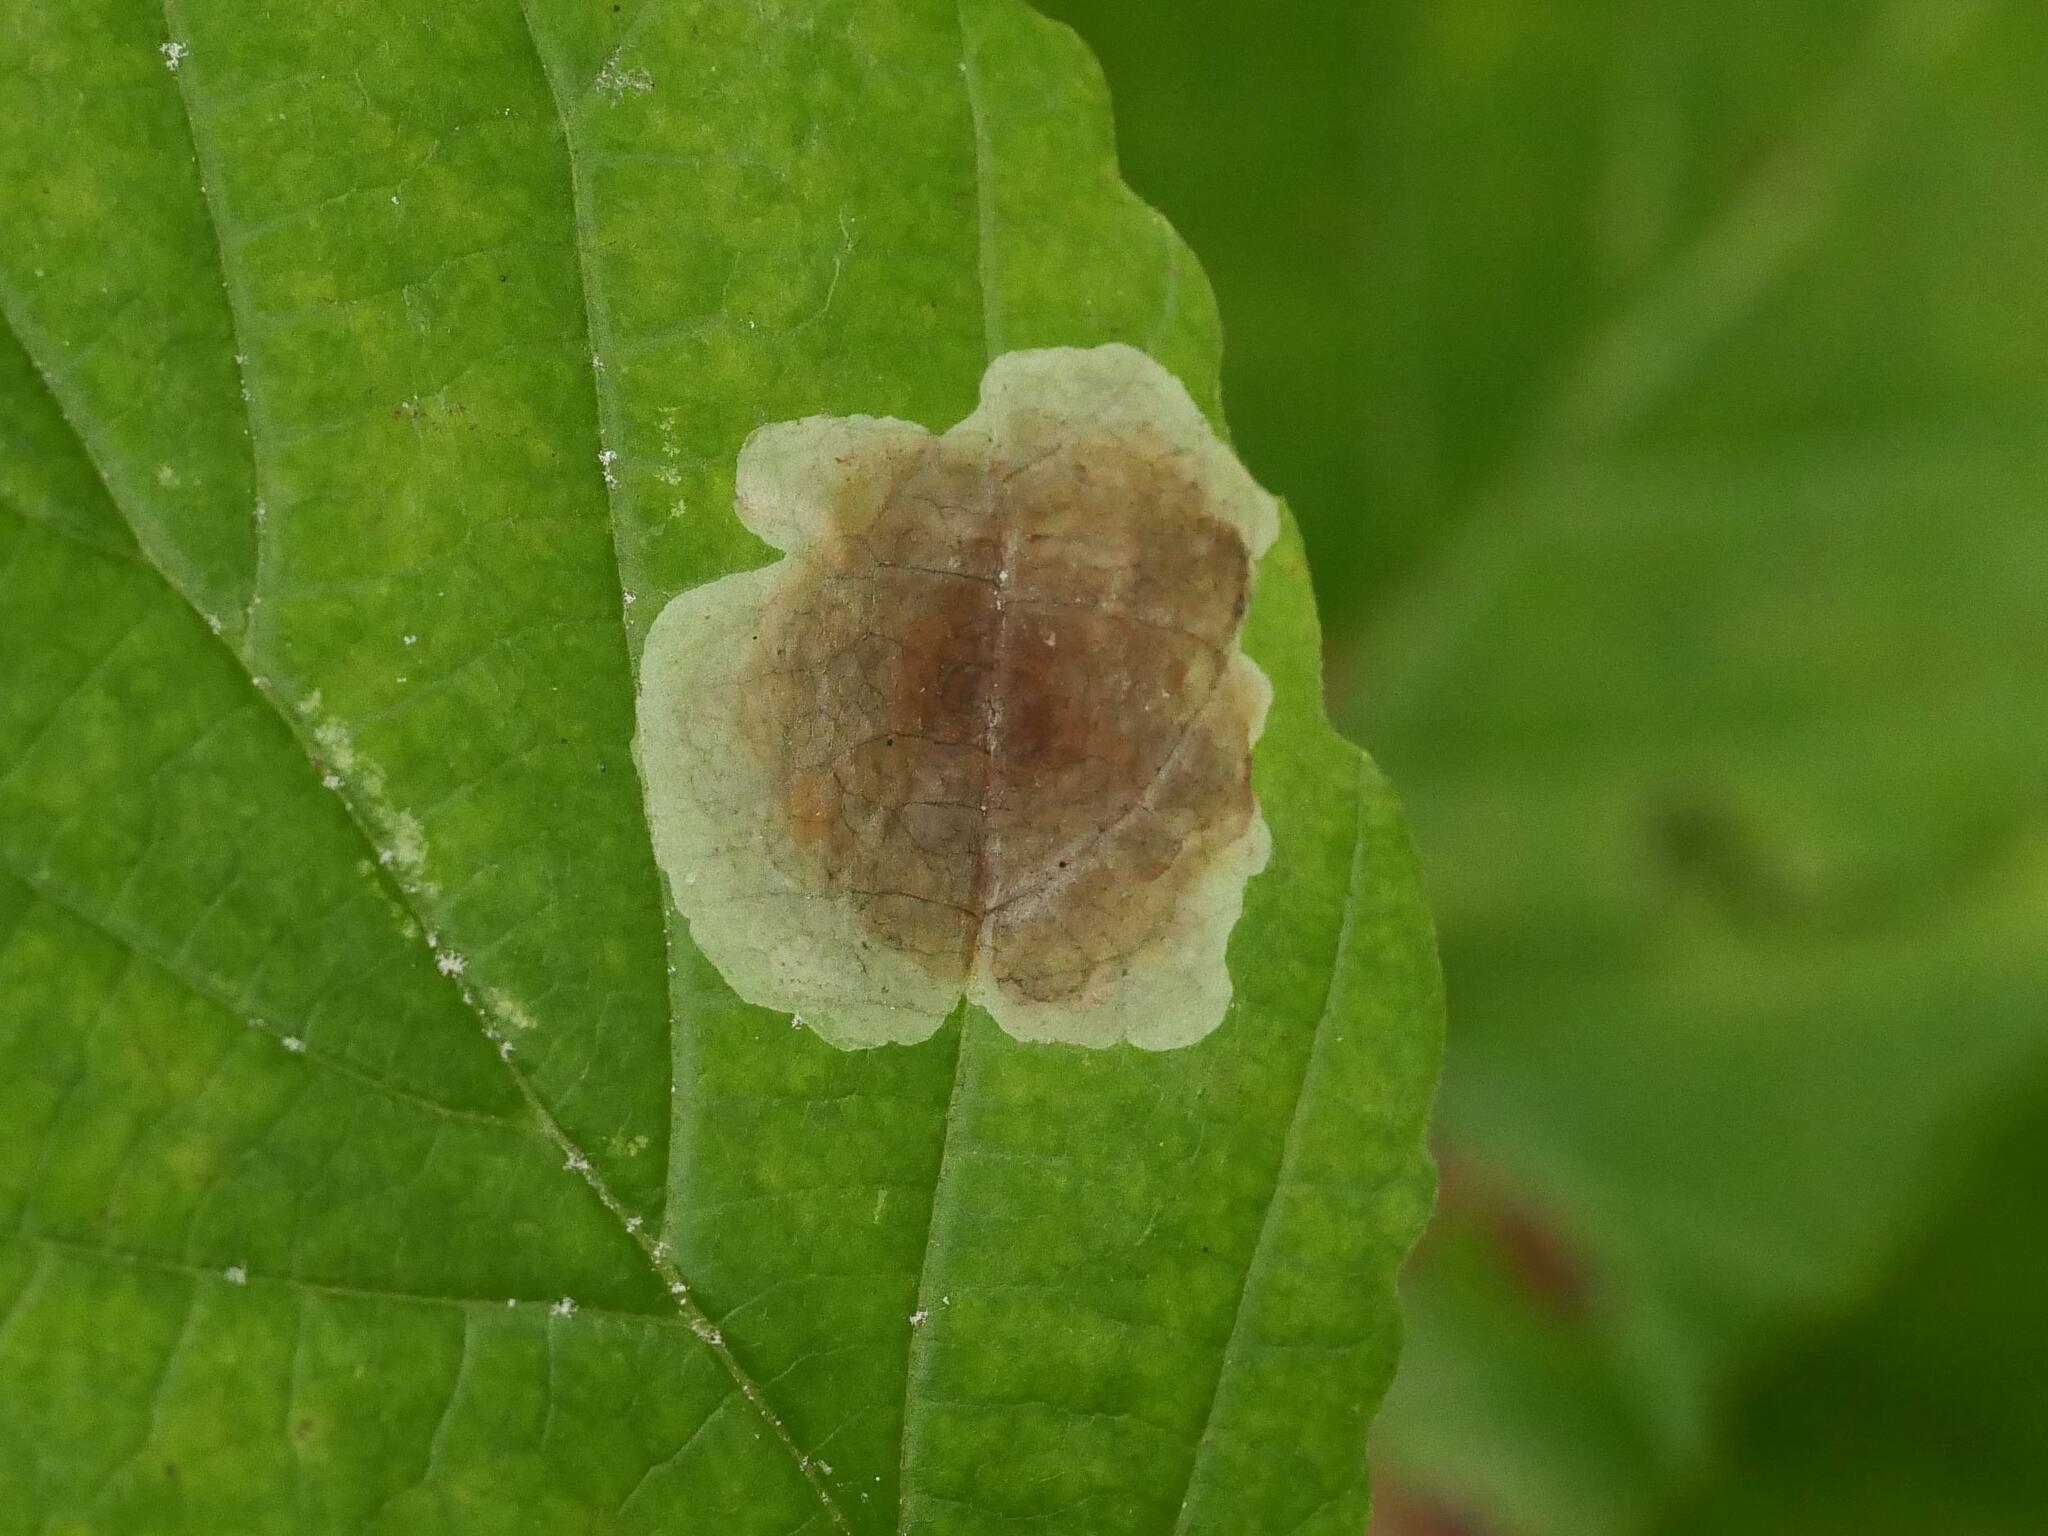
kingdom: Animalia
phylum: Arthropoda
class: Insecta
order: Lepidoptera
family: Gracillariidae
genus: Cameraria
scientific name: Cameraria hamameliella
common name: Witchhazel leafminer
